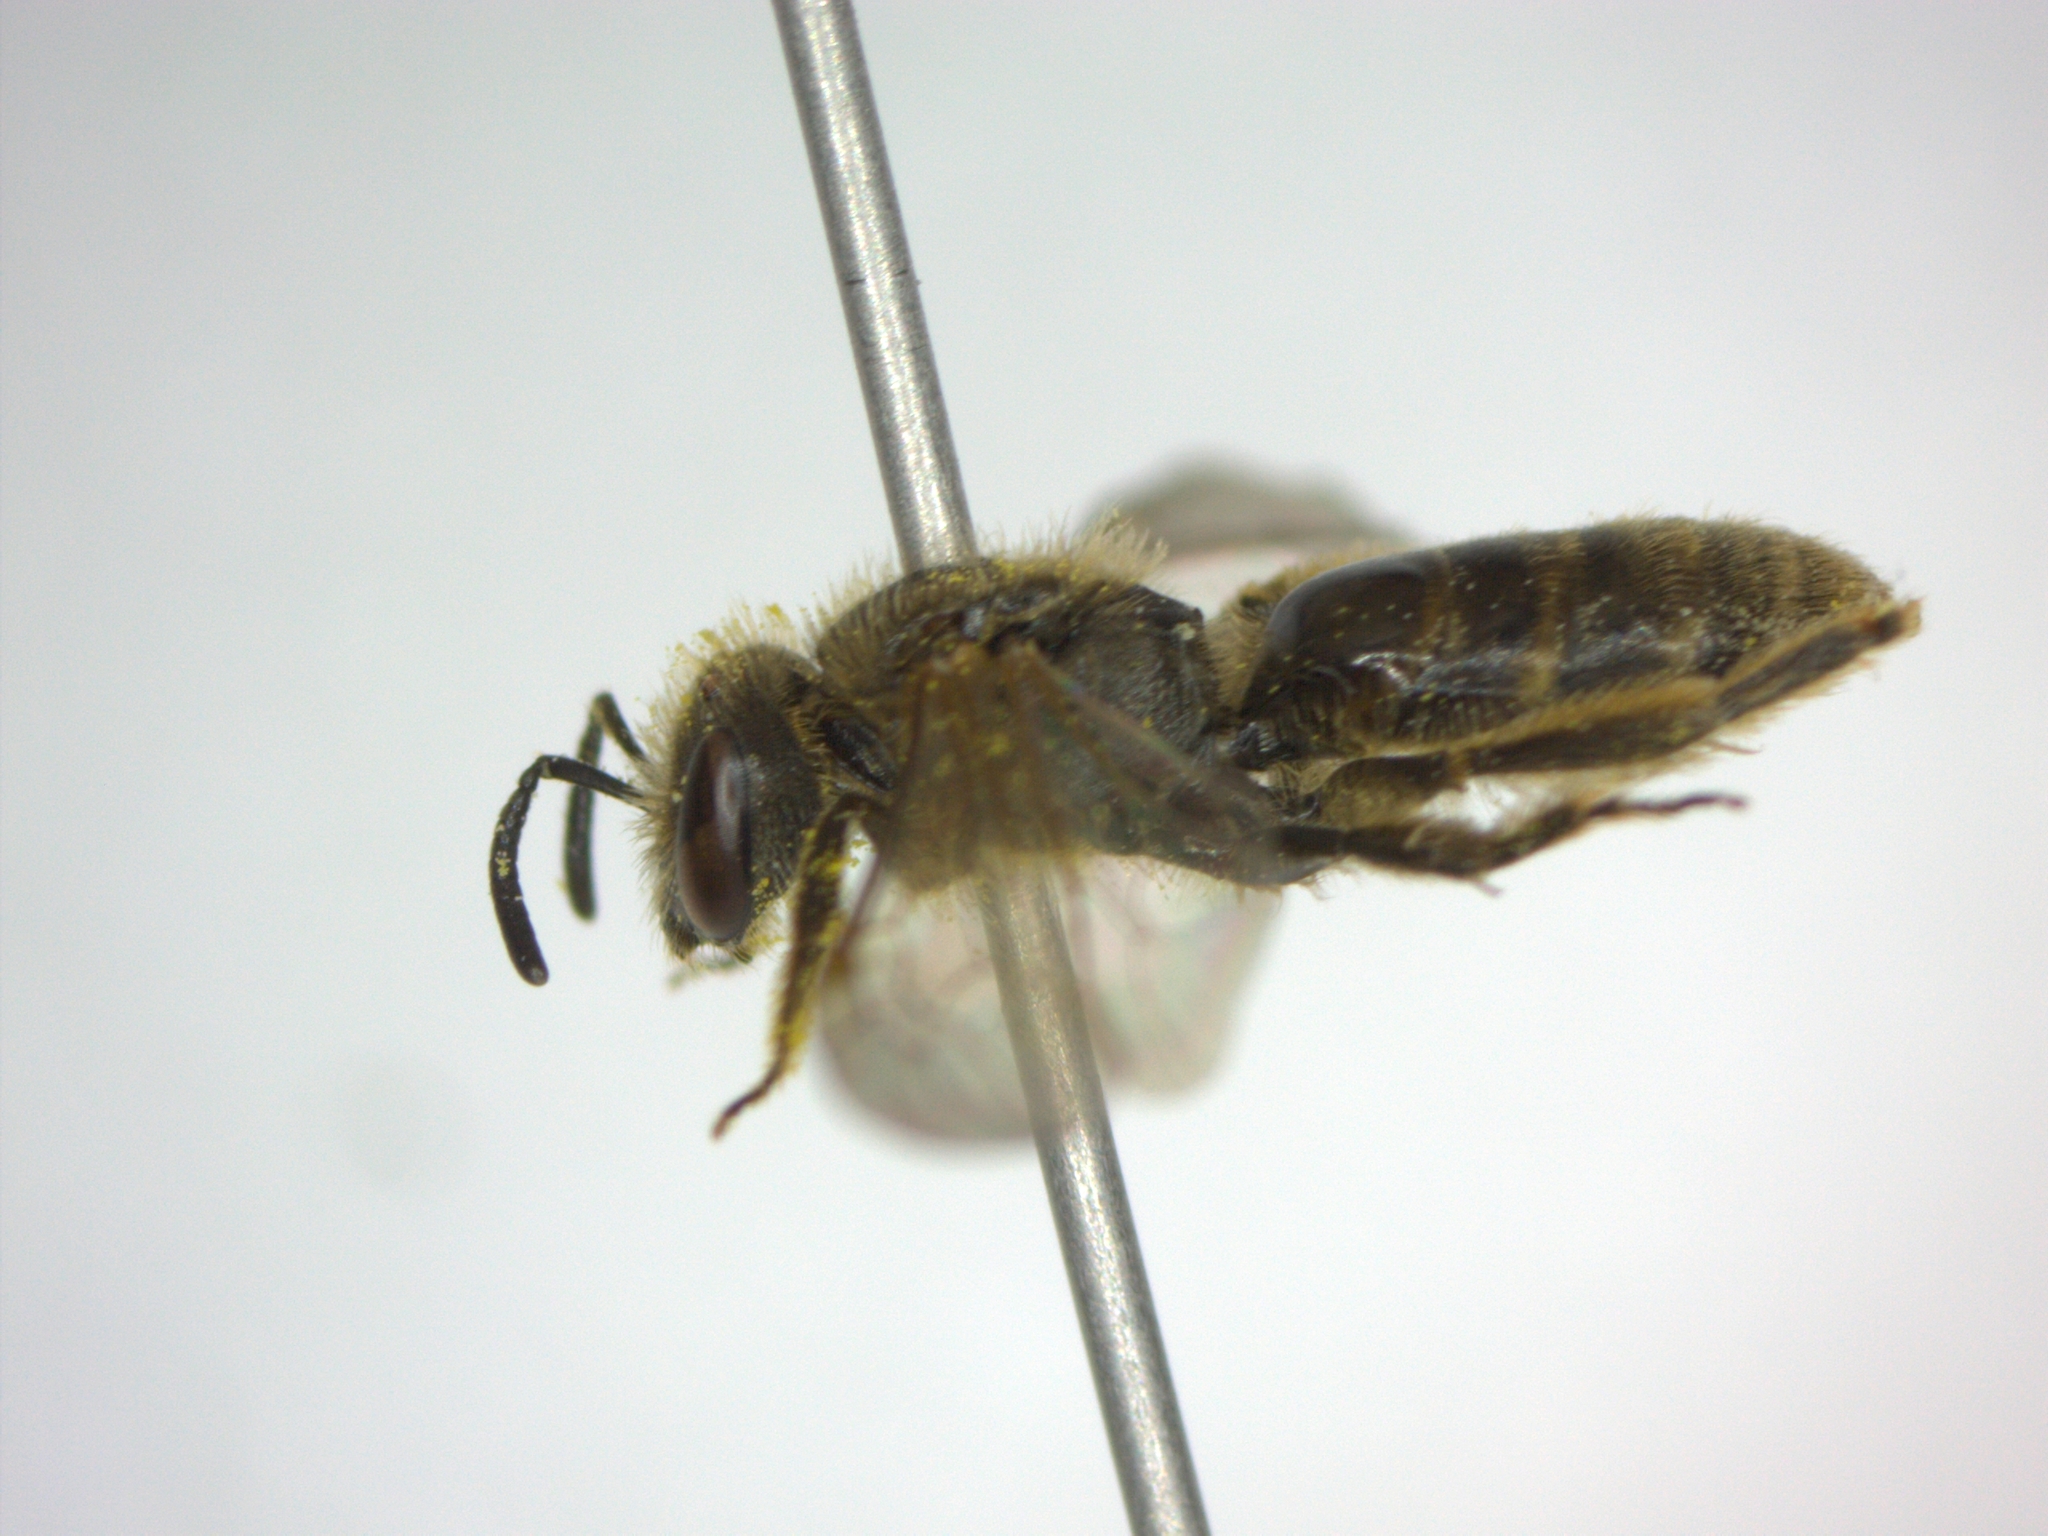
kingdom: Animalia
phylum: Arthropoda
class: Insecta
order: Hymenoptera
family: Halictidae
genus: Lasioglossum
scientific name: Lasioglossum malachurum
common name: Sharp-collared furrow bee
